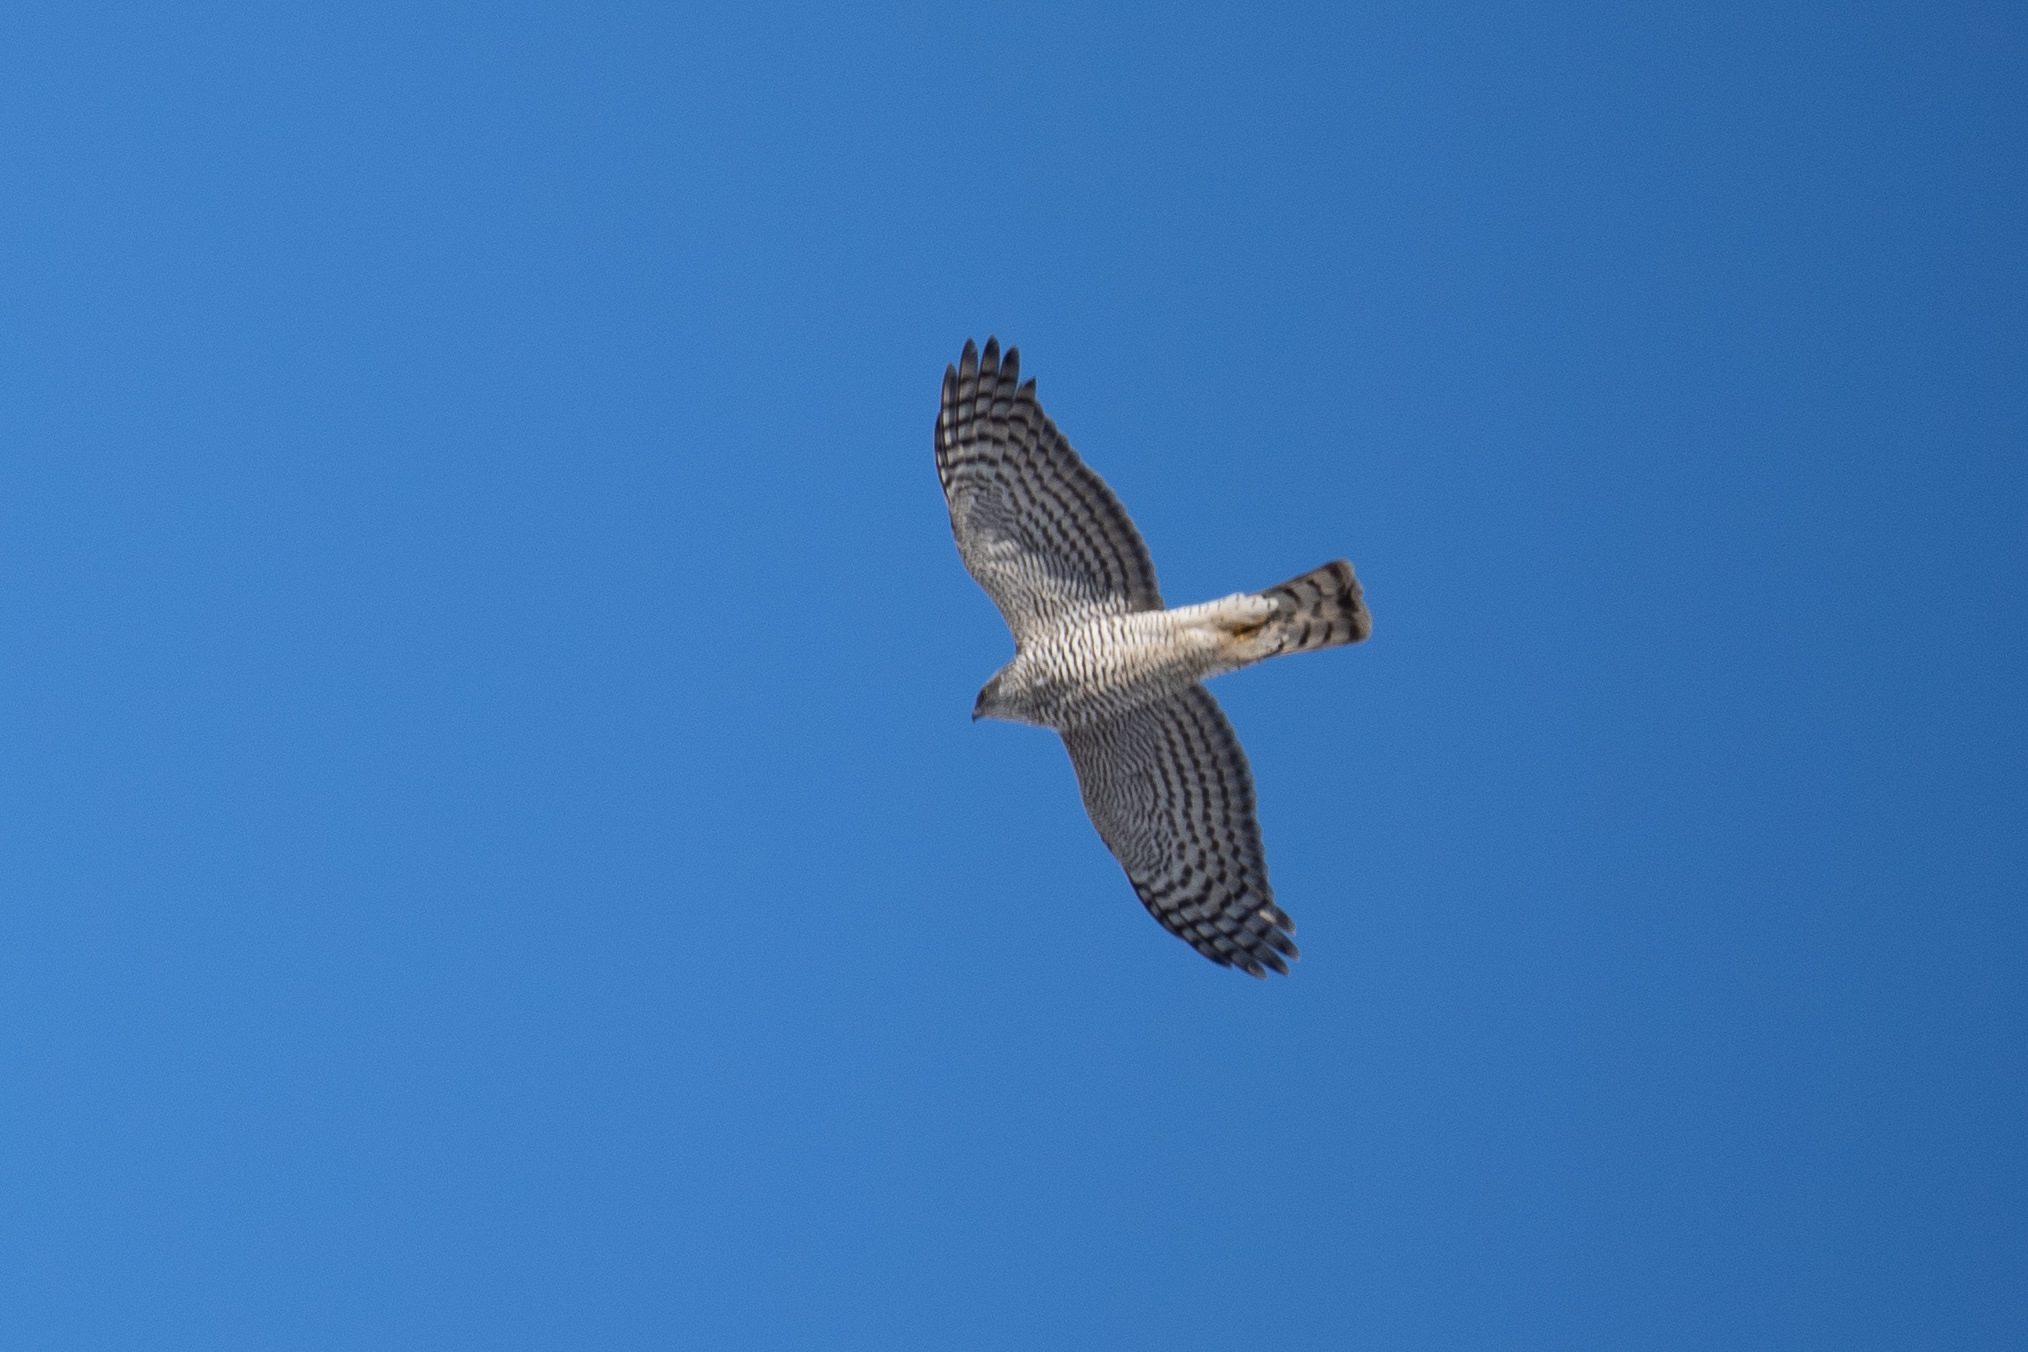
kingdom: Animalia
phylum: Chordata
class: Aves
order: Accipitriformes
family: Accipitridae
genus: Accipiter
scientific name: Accipiter nisus
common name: Eurasian sparrowhawk
